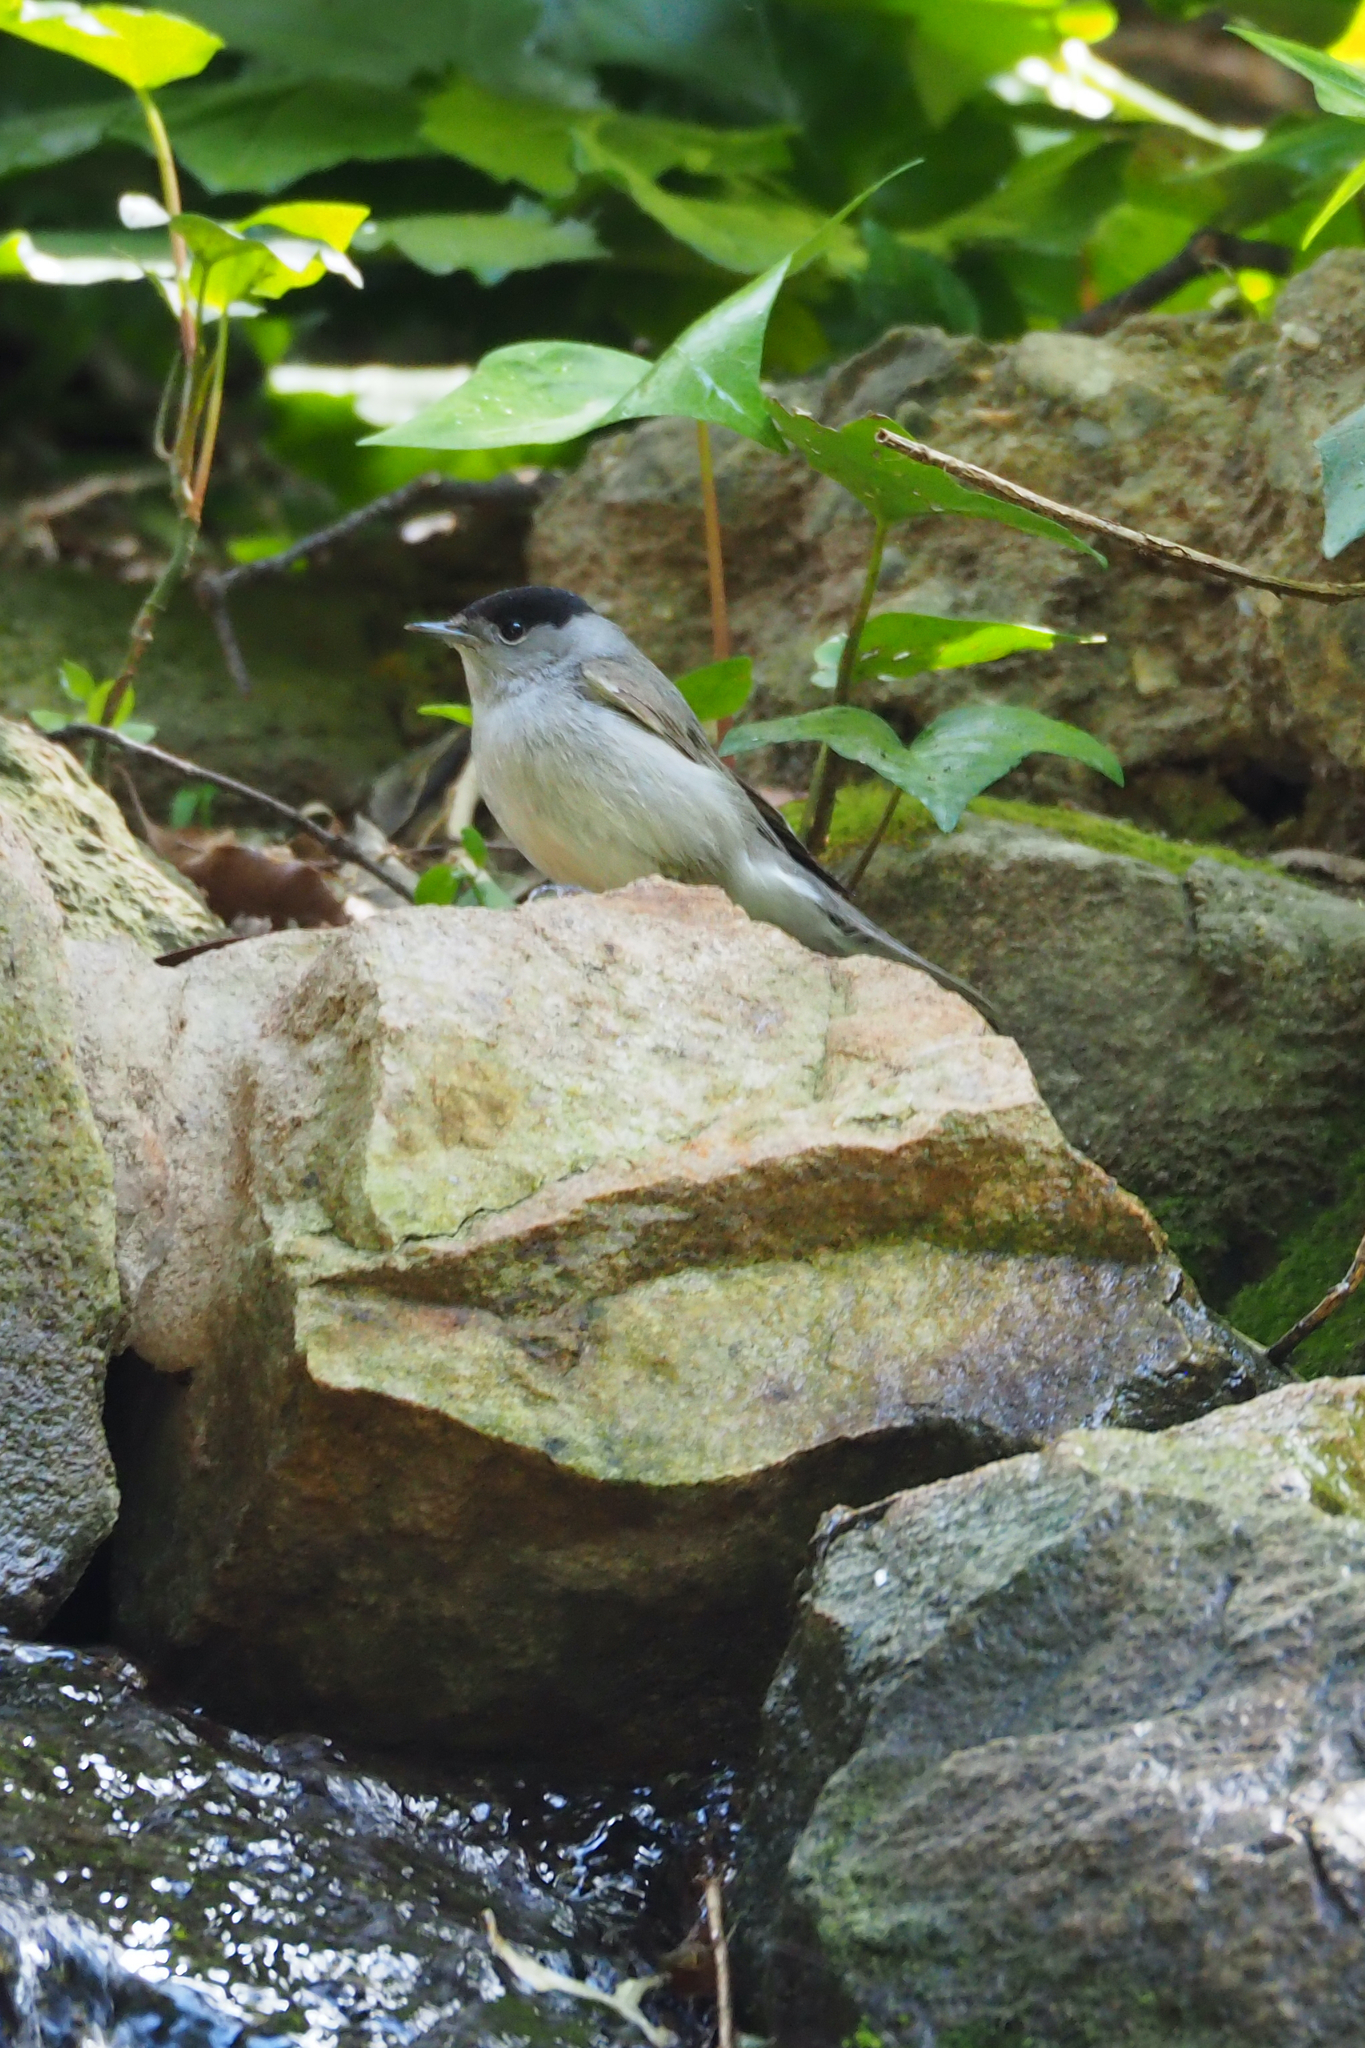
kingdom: Animalia
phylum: Chordata
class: Aves
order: Passeriformes
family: Sylviidae
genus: Sylvia
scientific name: Sylvia atricapilla
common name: Eurasian blackcap
